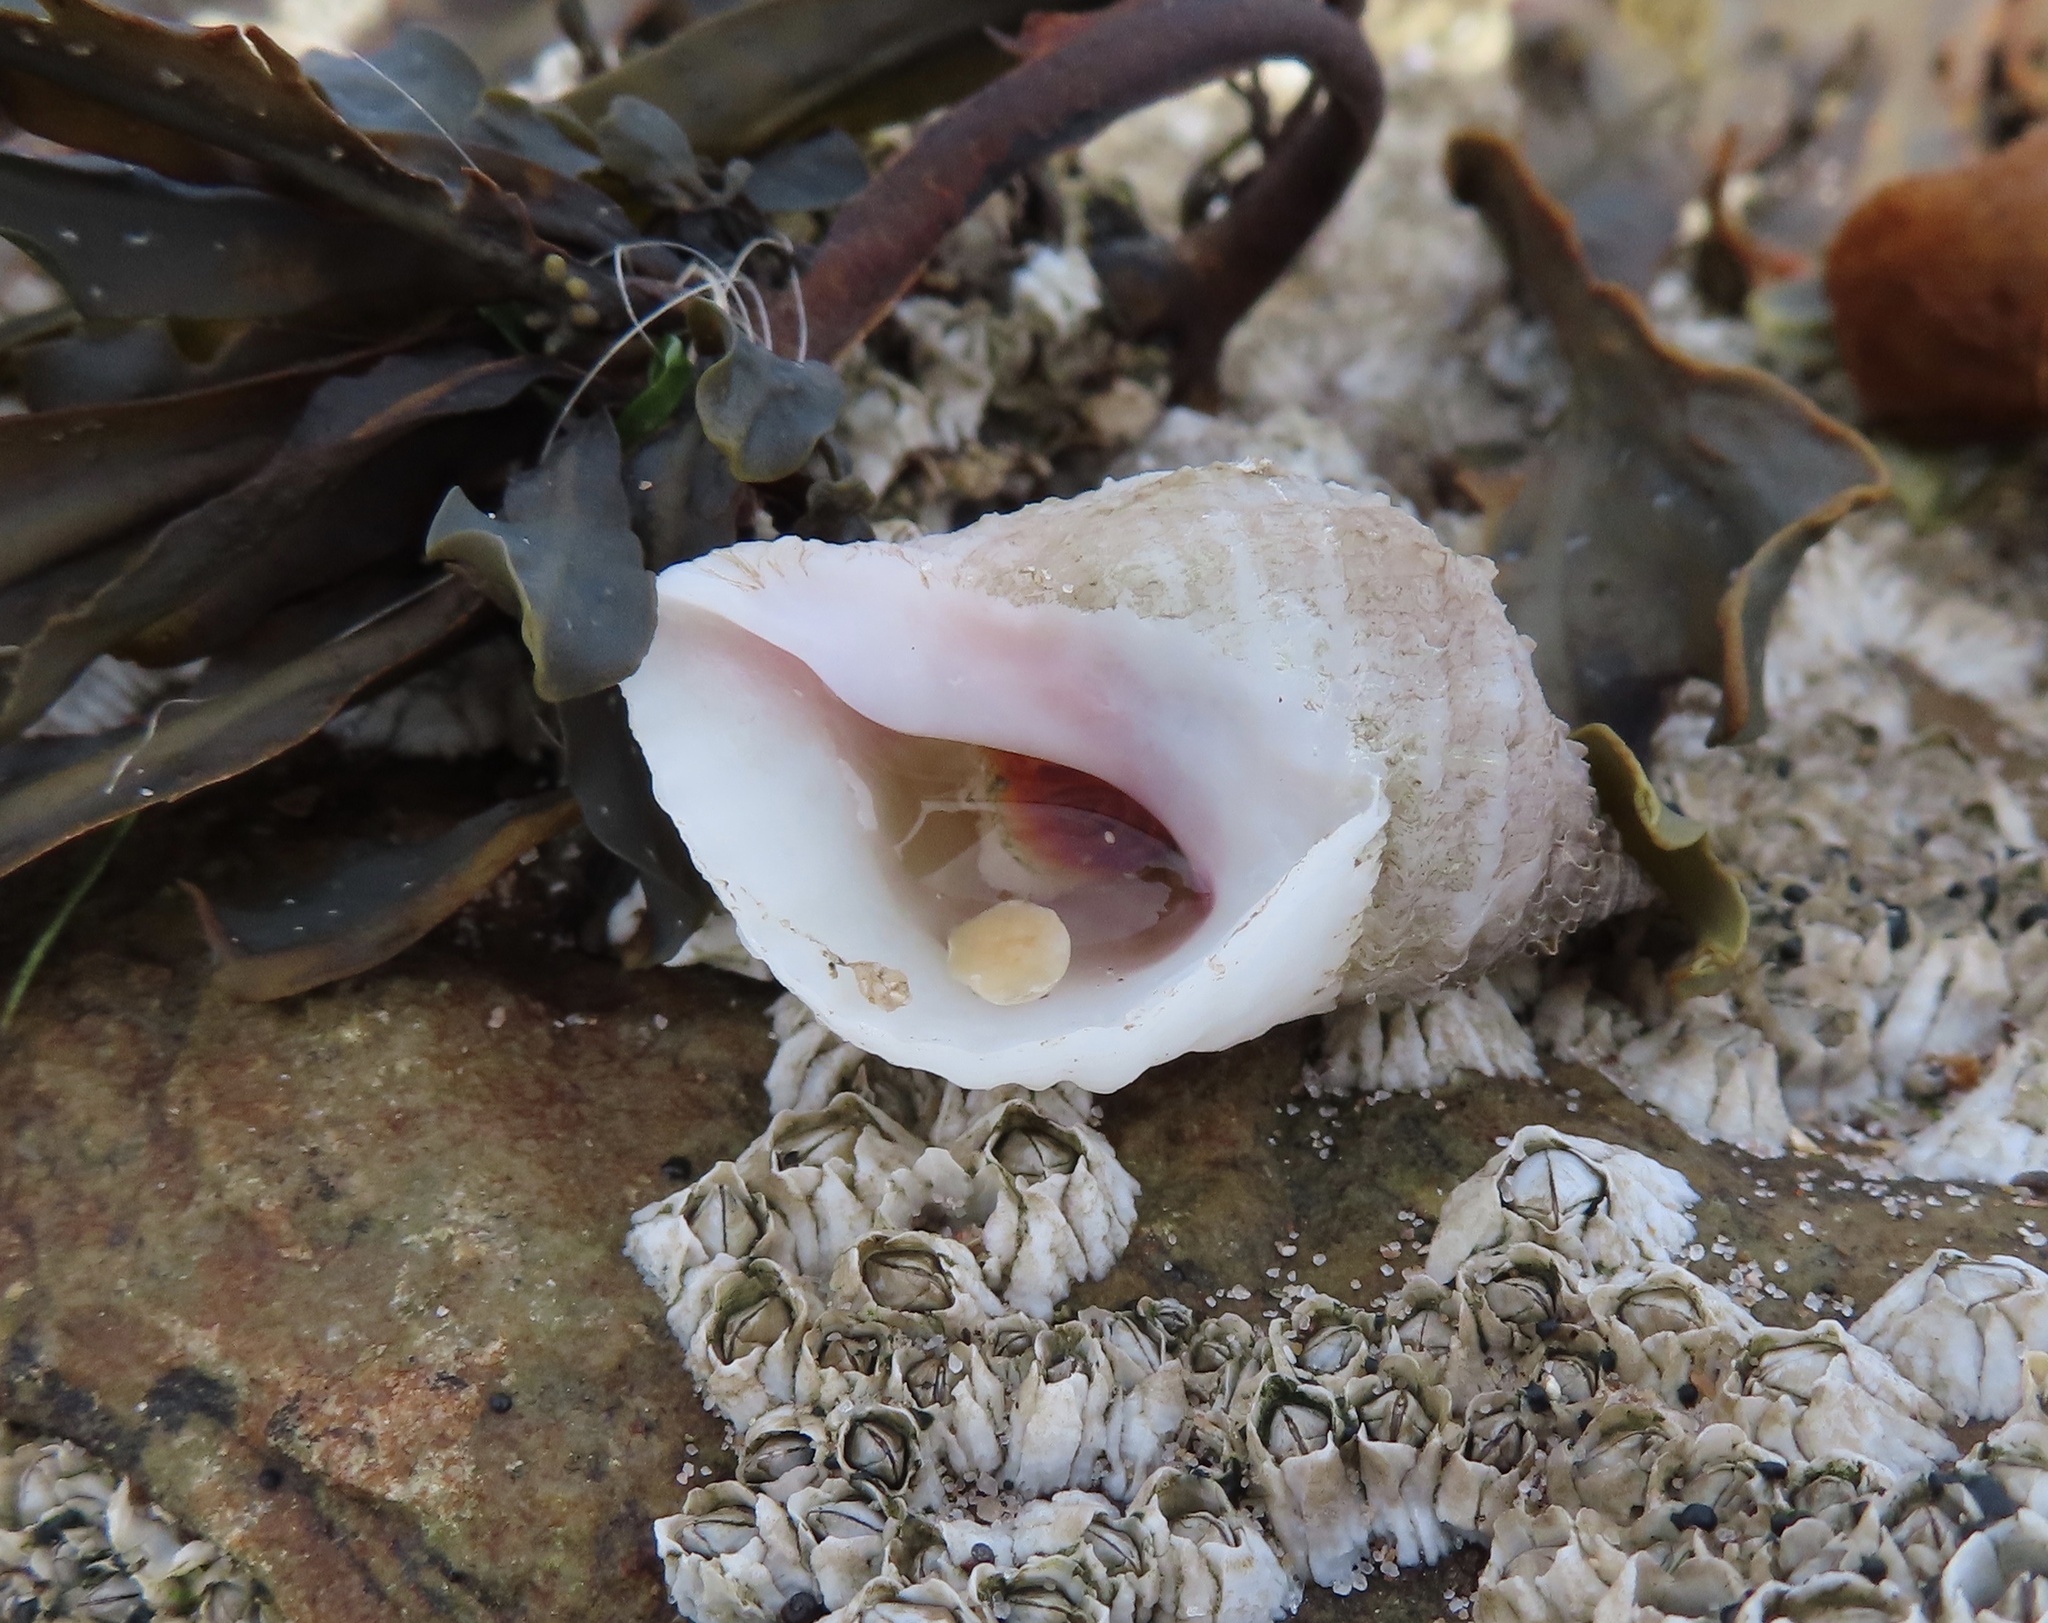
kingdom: Animalia
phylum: Mollusca
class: Gastropoda
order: Neogastropoda
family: Muricidae
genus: Nucella
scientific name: Nucella lapillus
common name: Dog whelk
